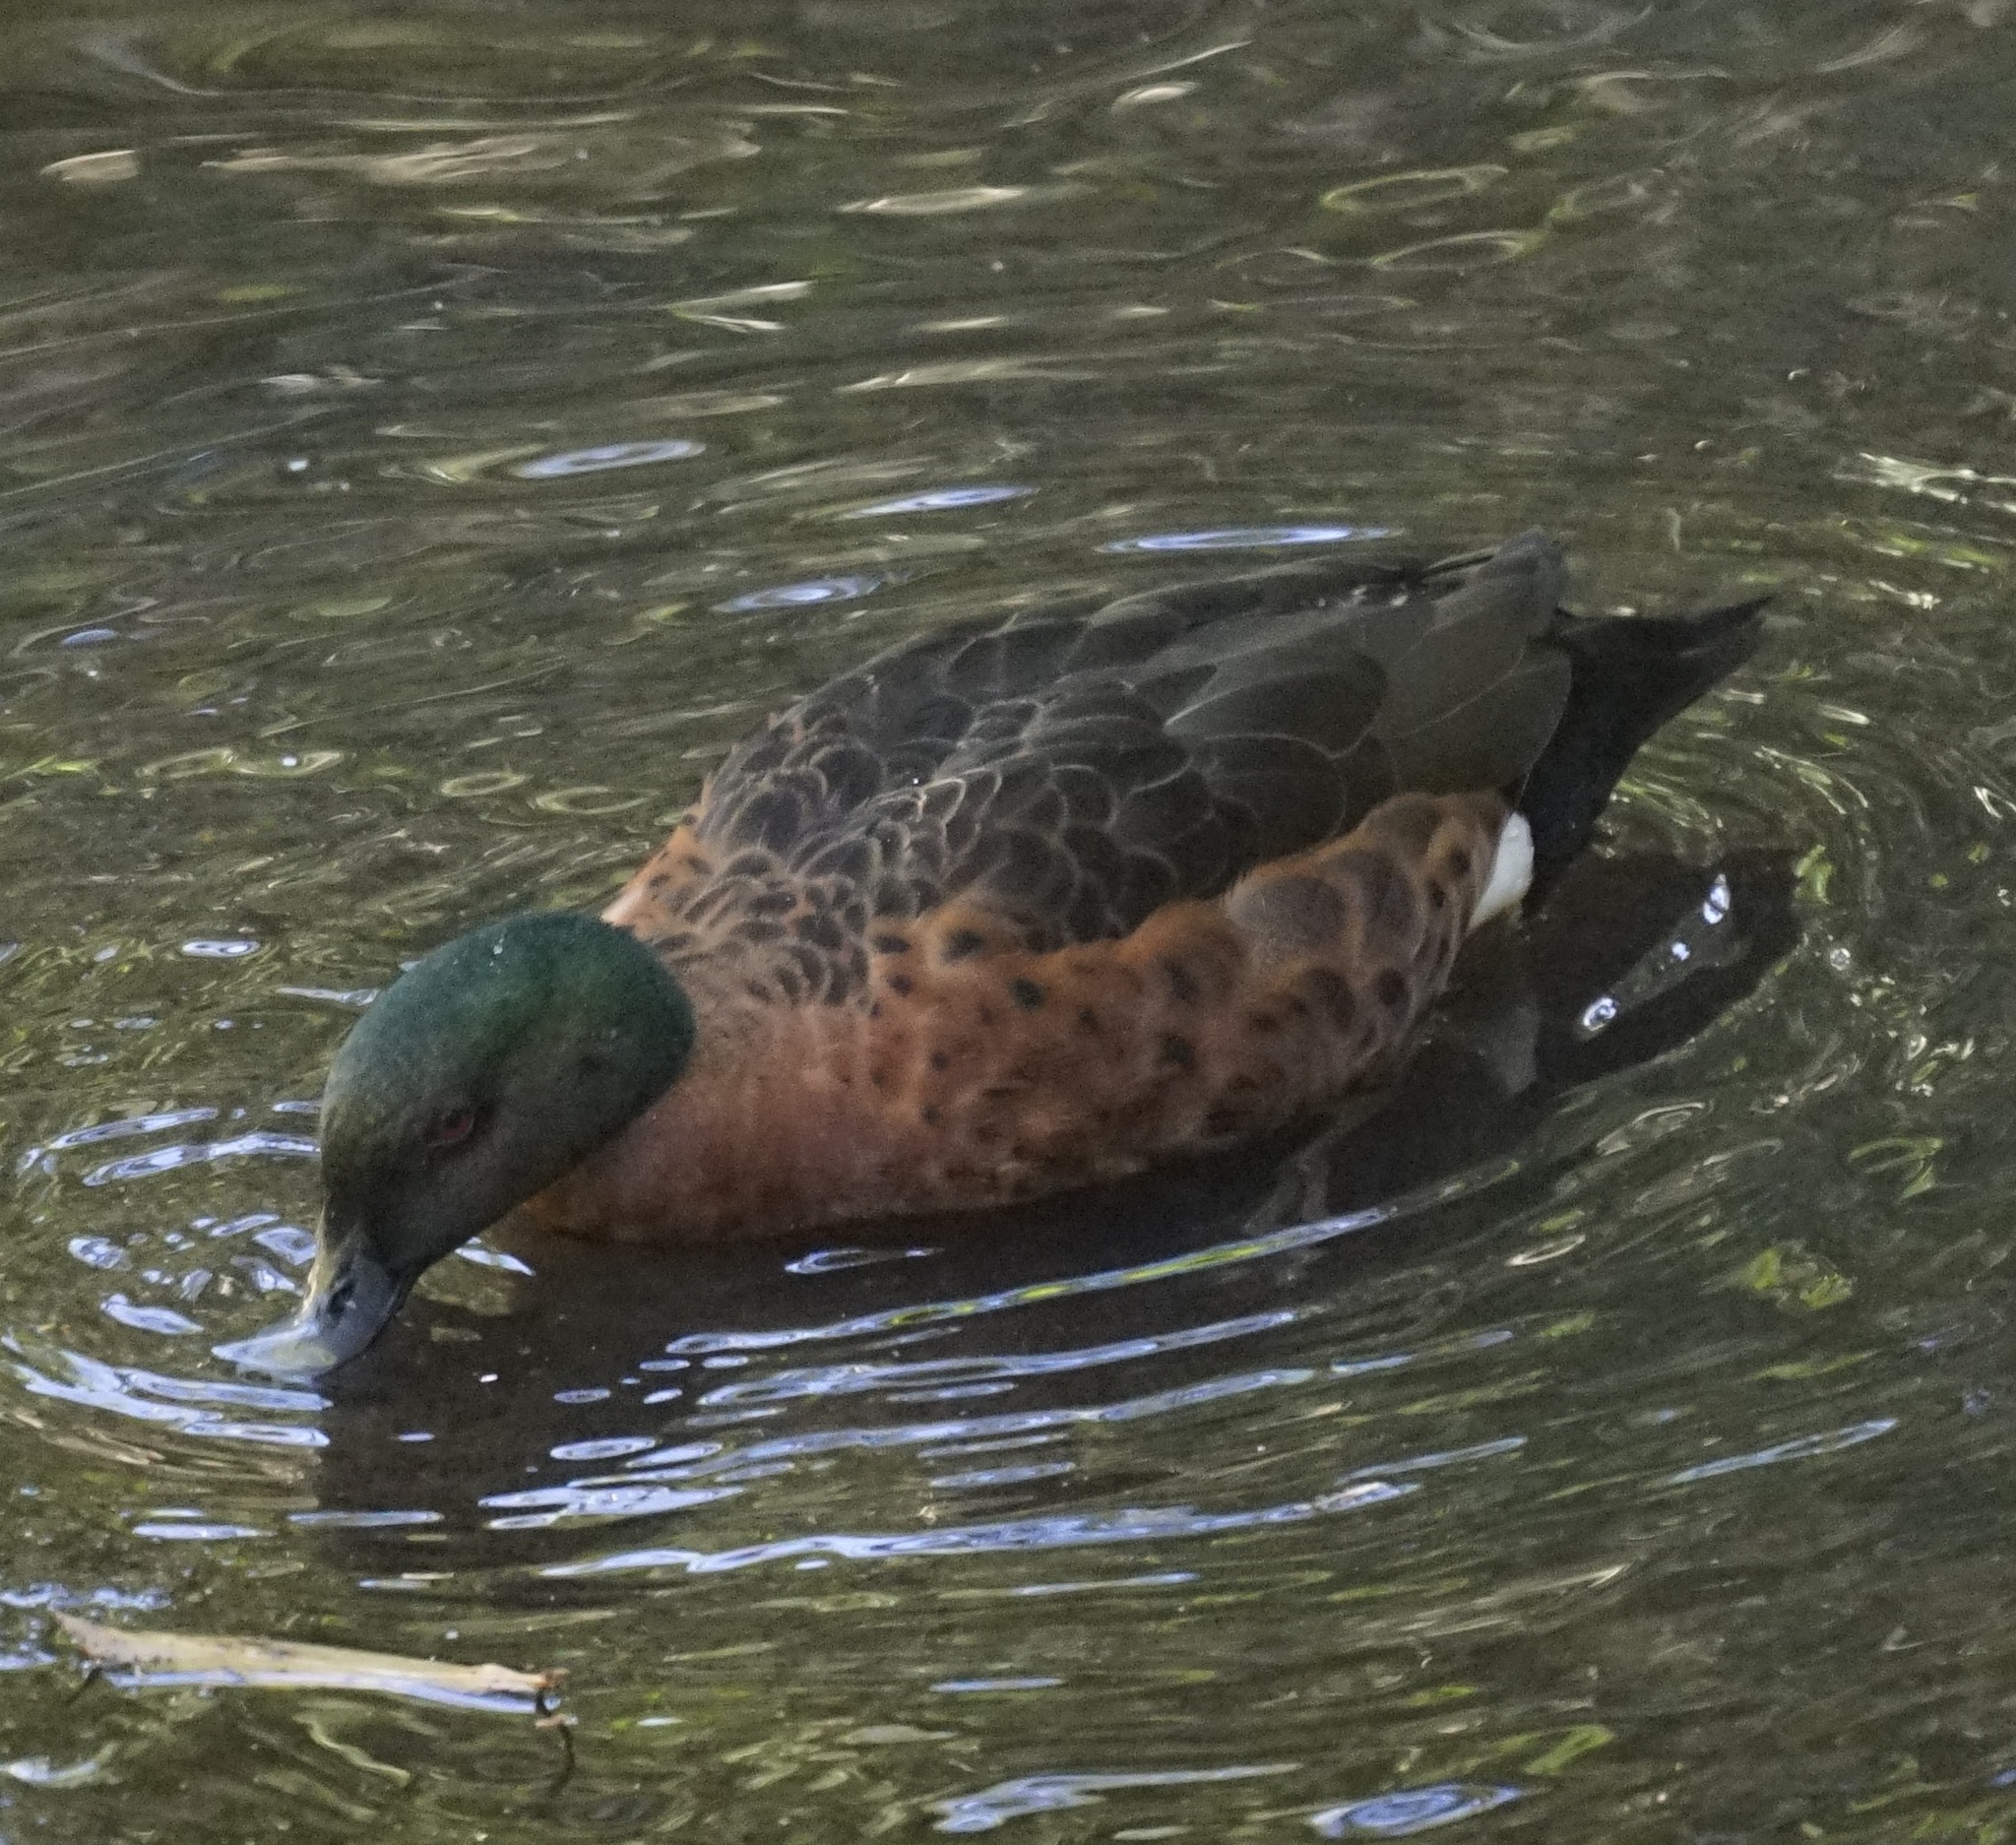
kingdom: Animalia
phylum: Chordata
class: Aves
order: Anseriformes
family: Anatidae
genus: Anas
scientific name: Anas castanea
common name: Chestnut teal
